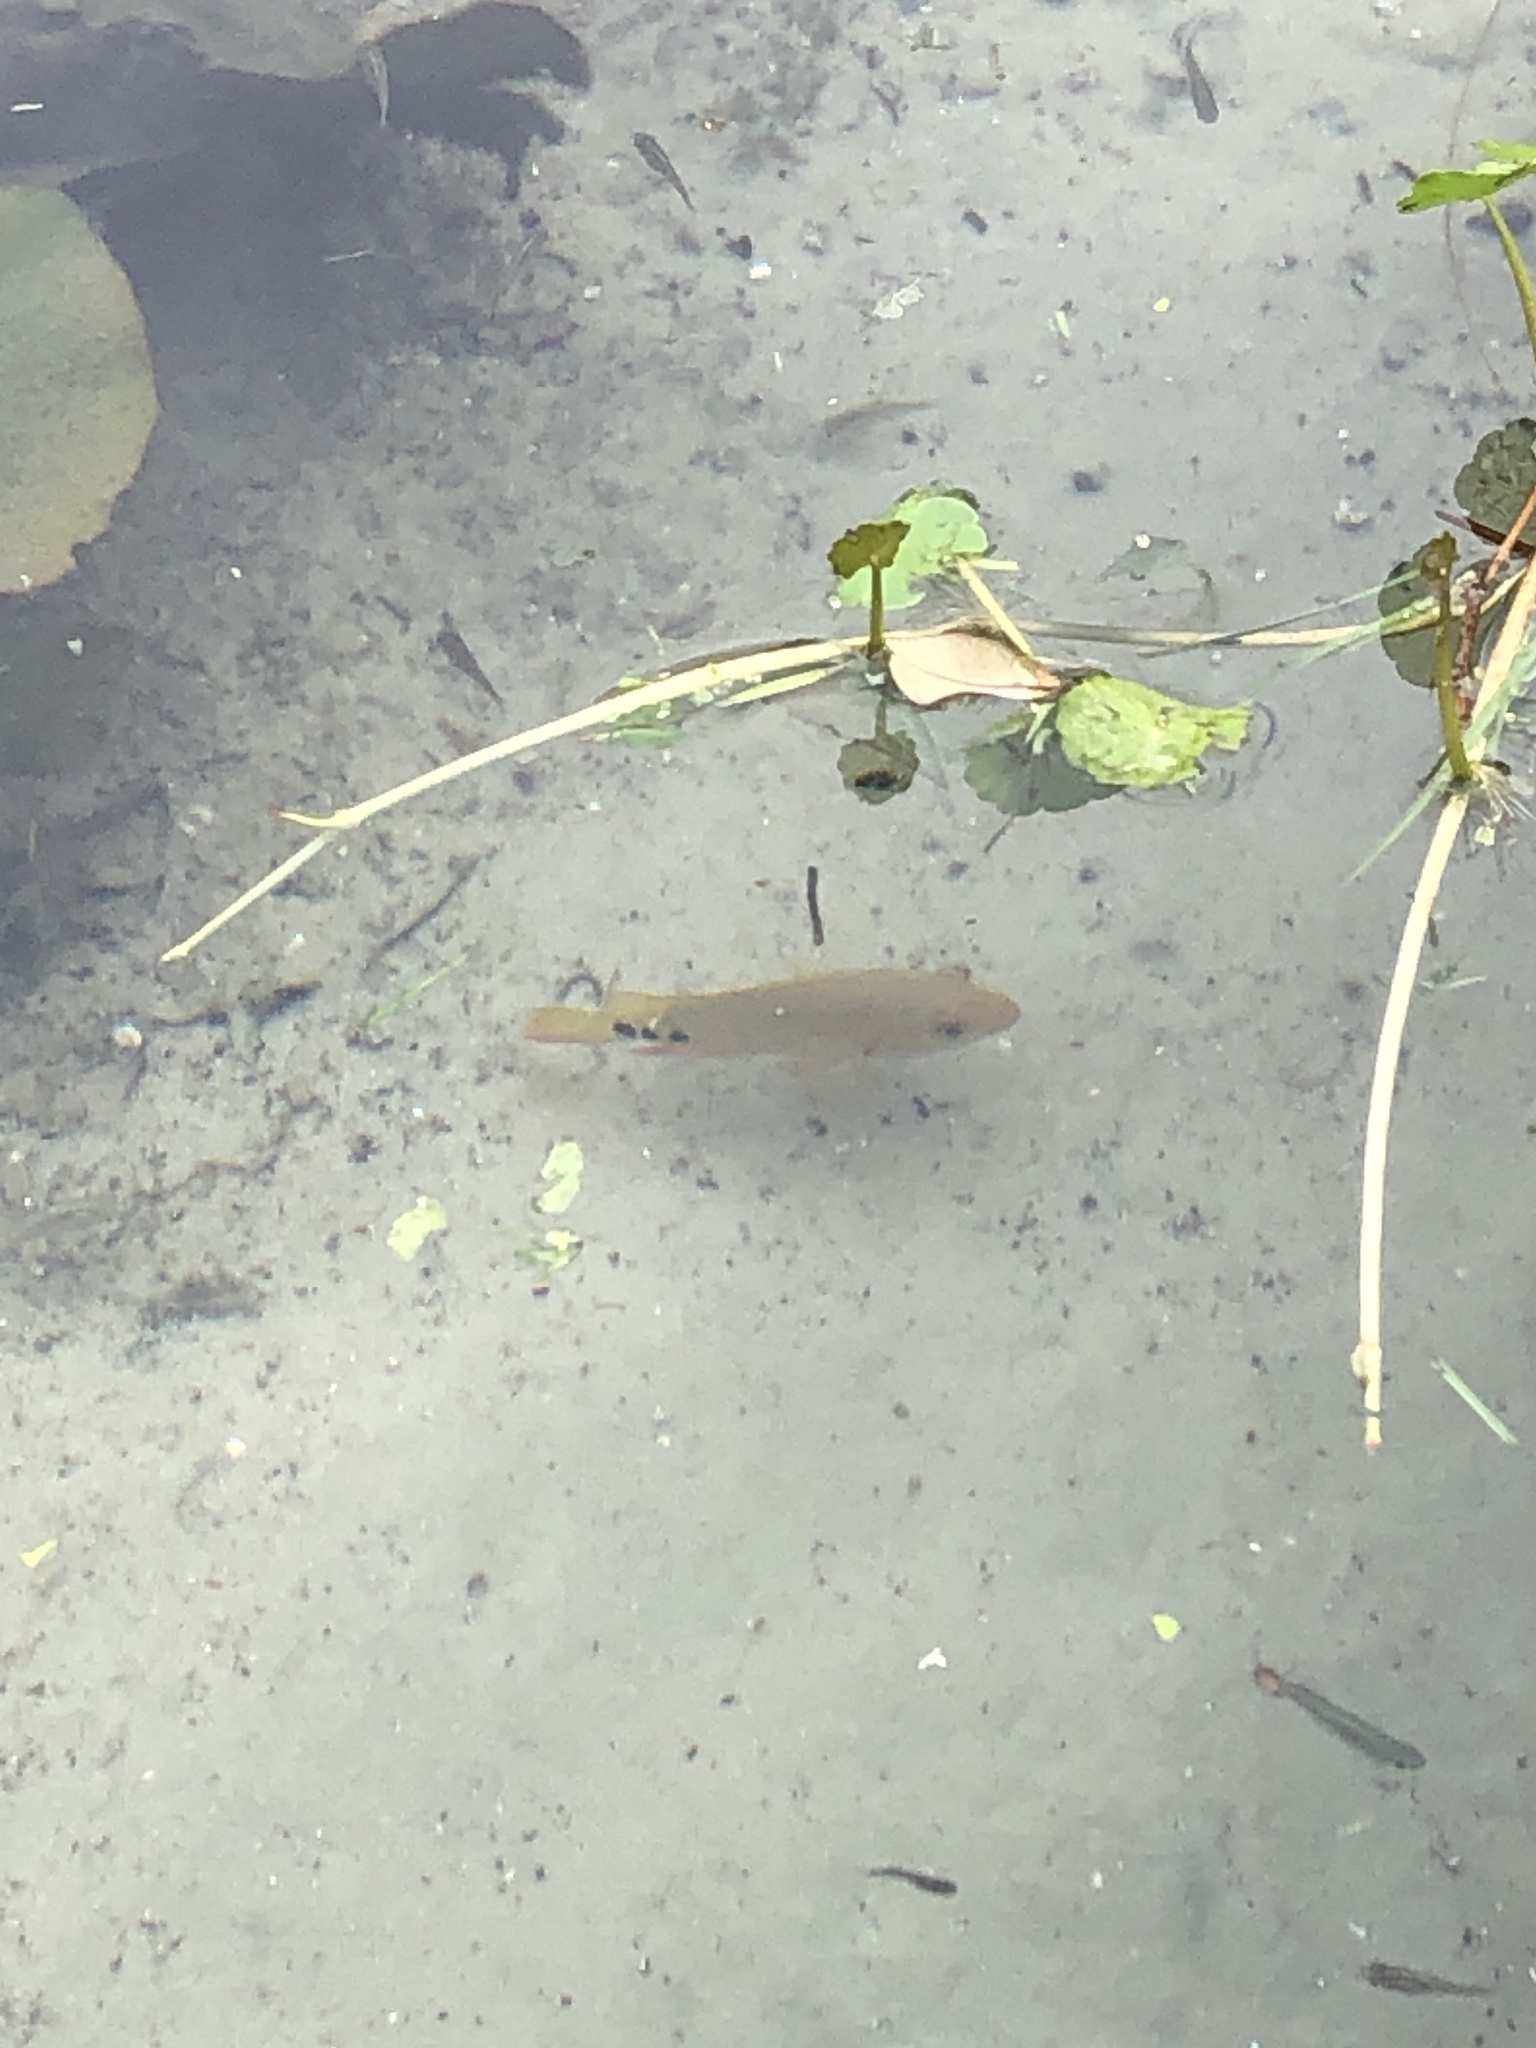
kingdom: Animalia
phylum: Chordata
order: Perciformes
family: Cichlidae
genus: Mayaheros
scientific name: Mayaheros urophthalmus
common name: Mayan cichlid
